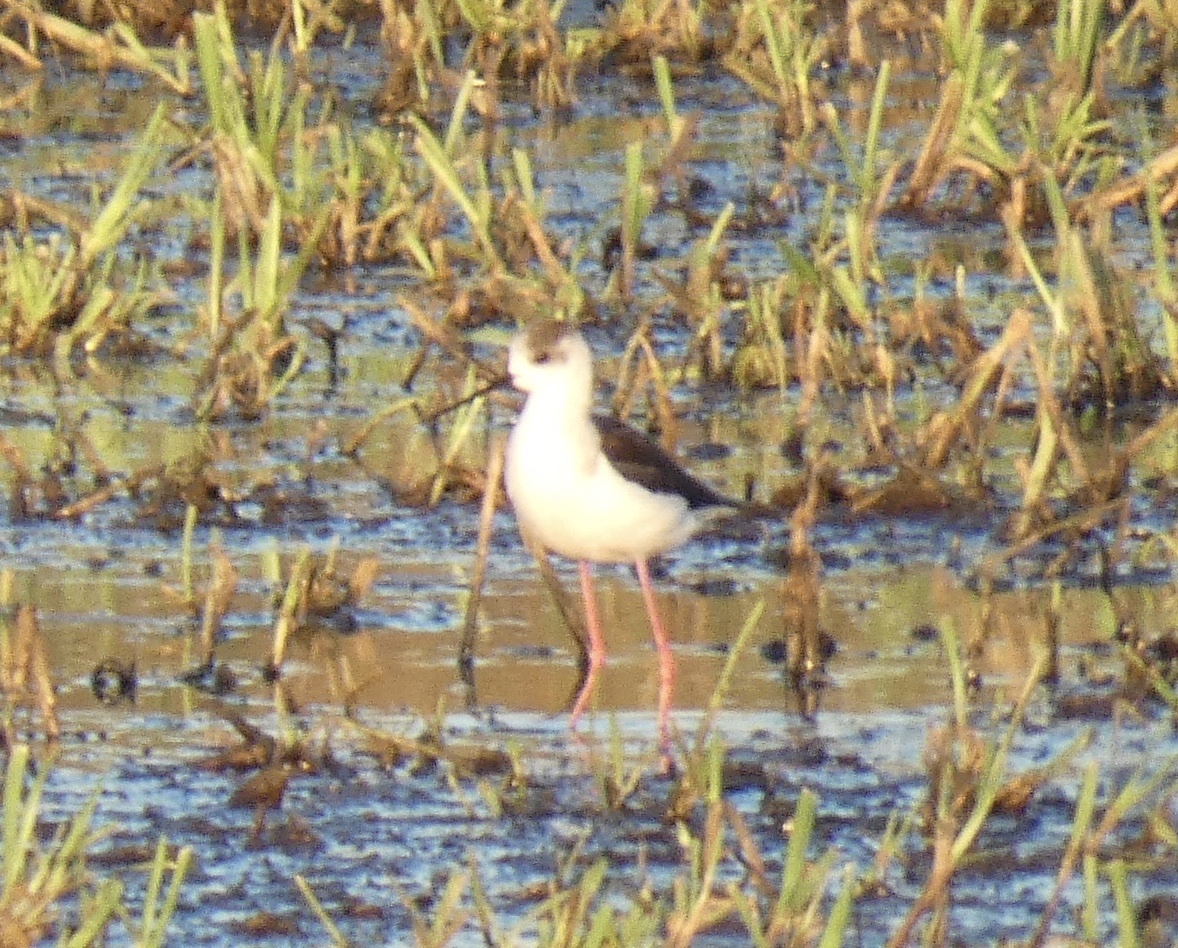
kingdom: Animalia
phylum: Chordata
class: Aves
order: Charadriiformes
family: Recurvirostridae
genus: Himantopus
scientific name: Himantopus himantopus
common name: Black-winged stilt
